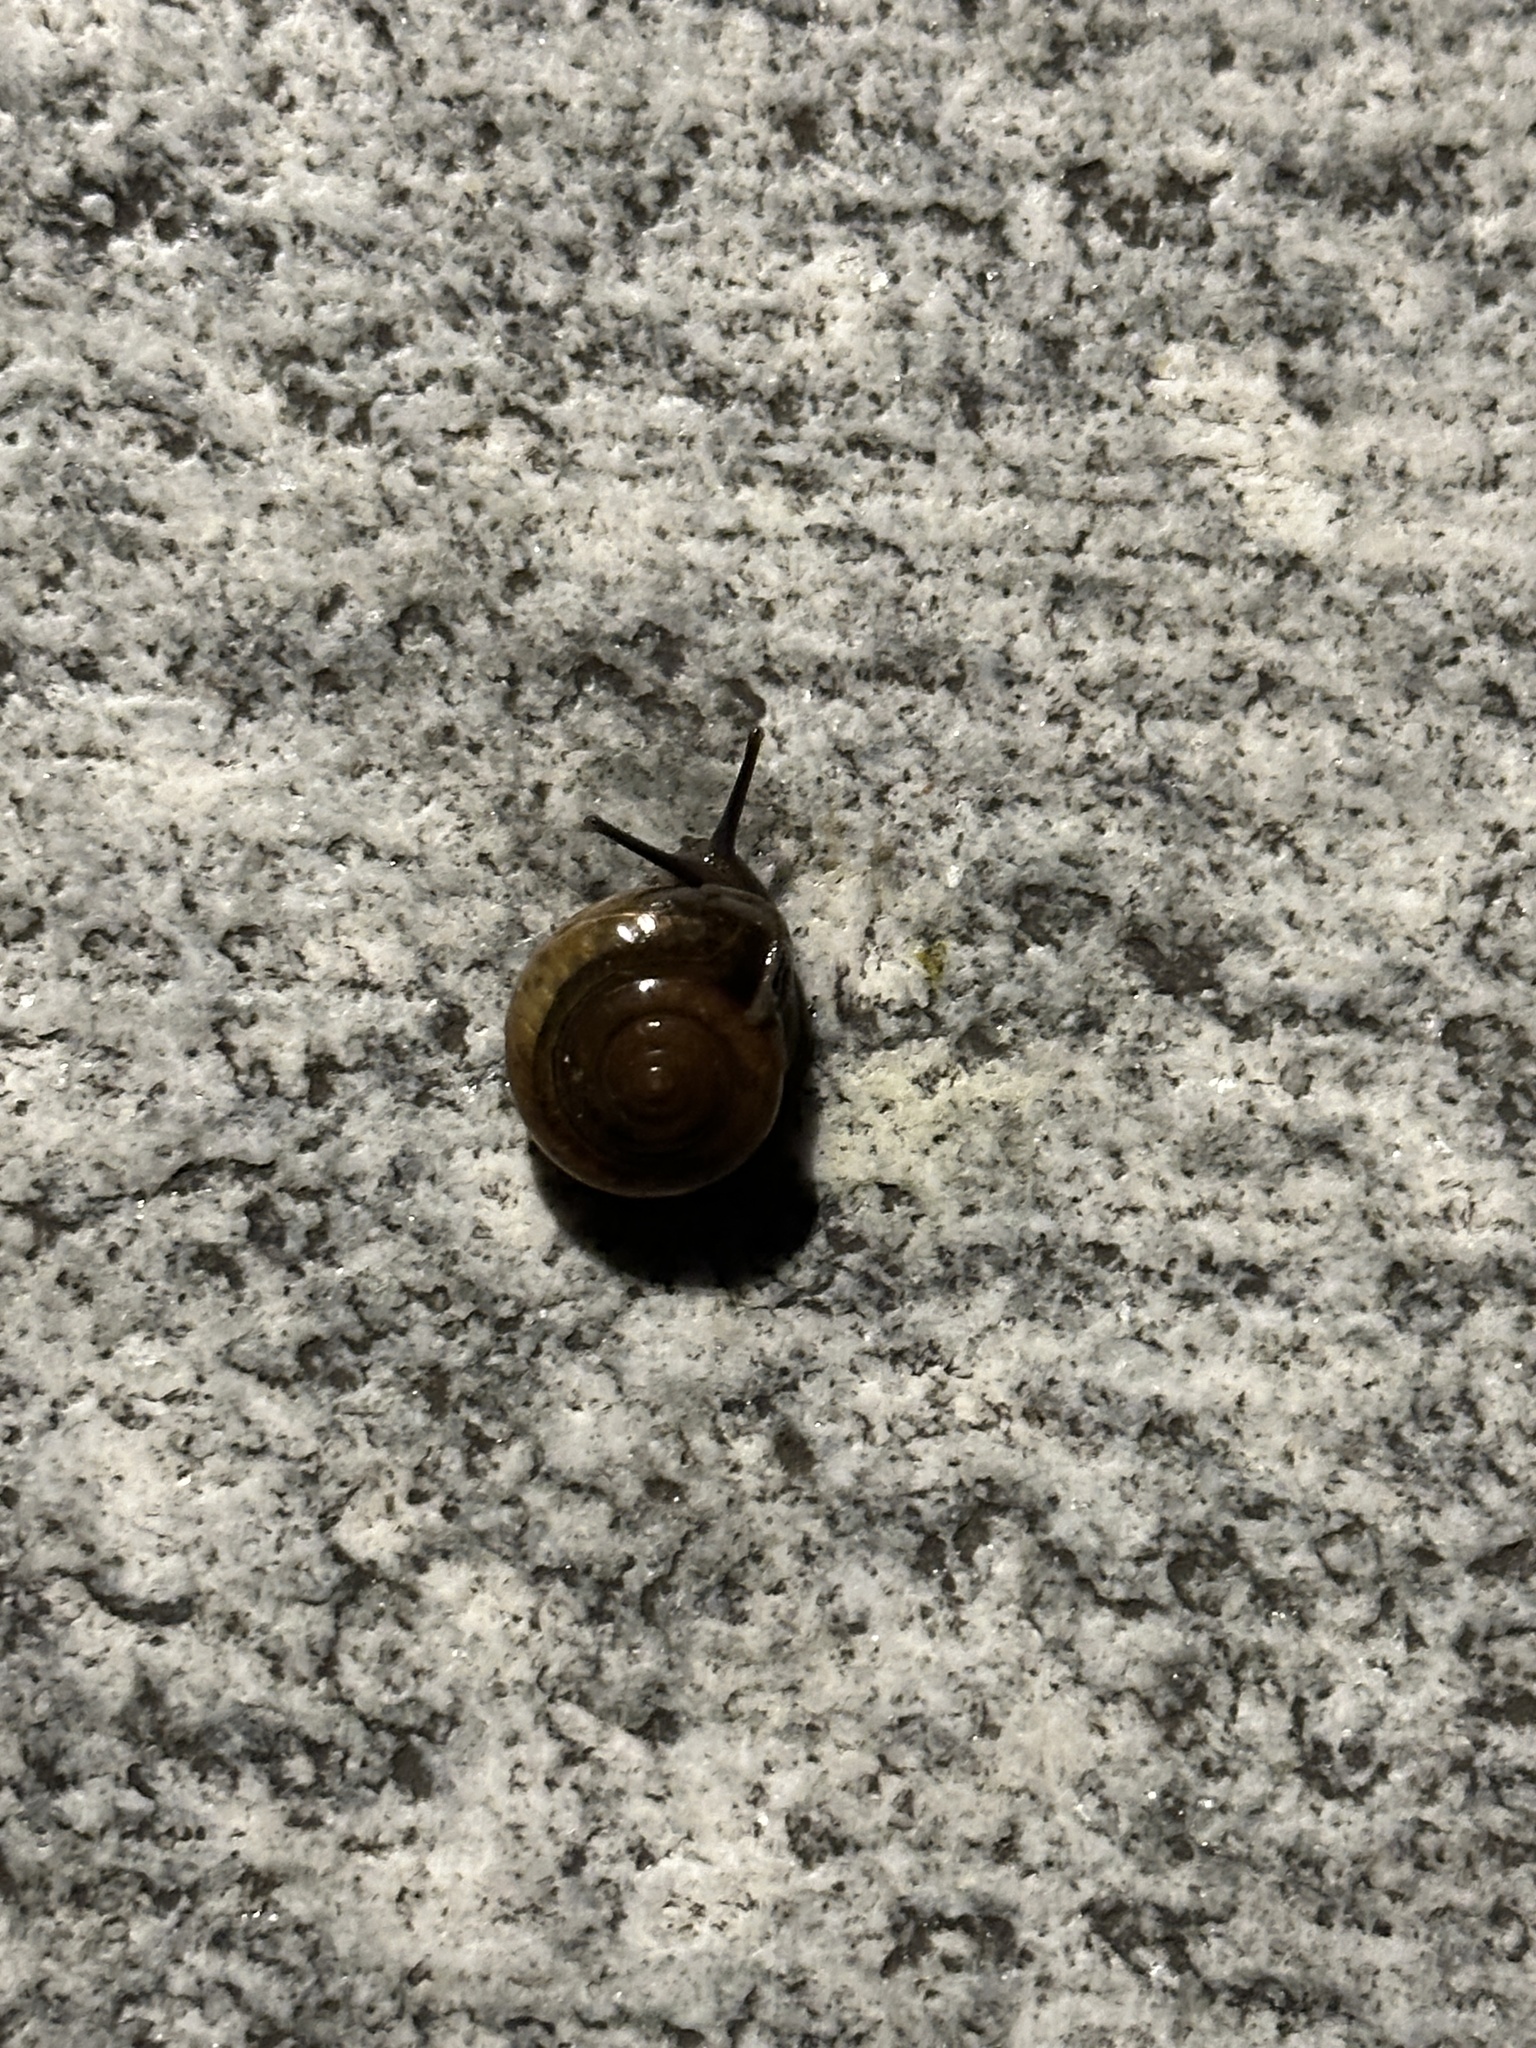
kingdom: Animalia
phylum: Mollusca
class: Gastropoda
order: Stylommatophora
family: Ariophantidae
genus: Macrochlamys
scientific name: Macrochlamys hippocastaneum
